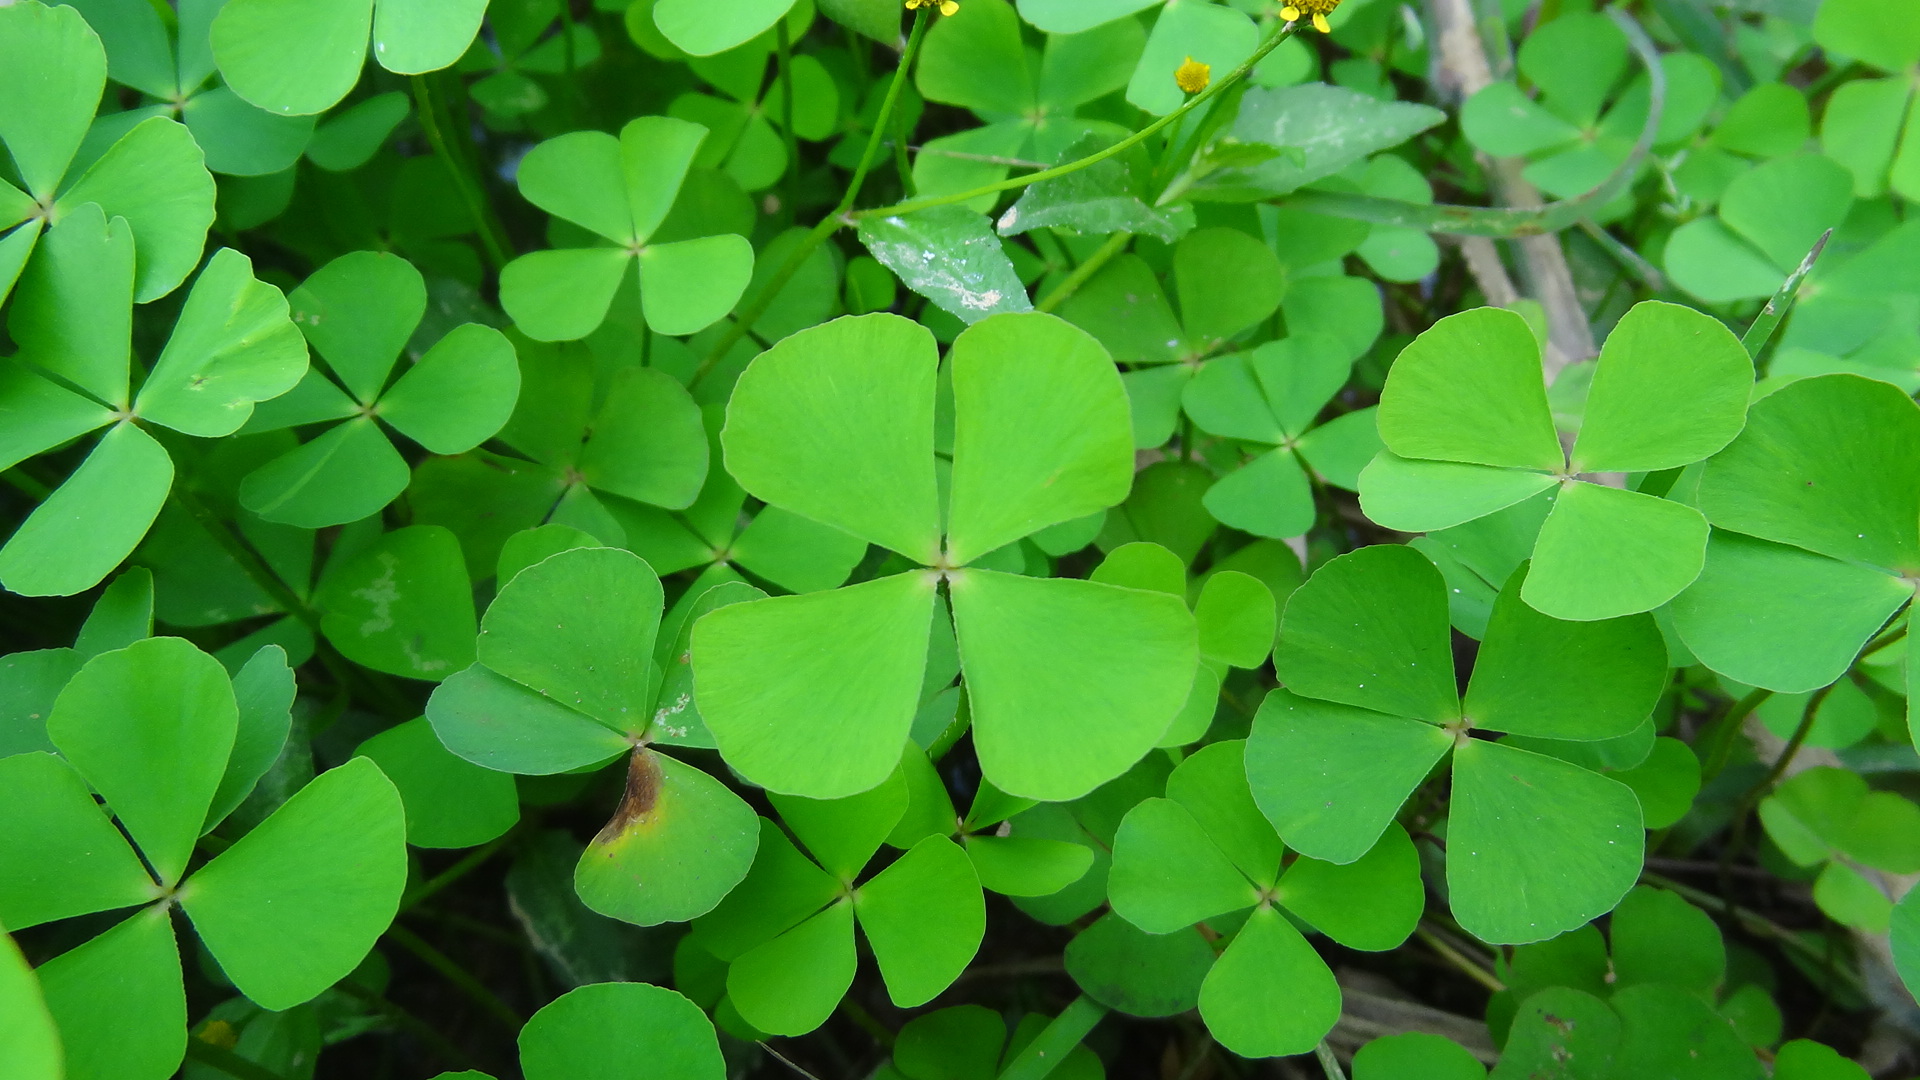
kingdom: Plantae
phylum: Tracheophyta
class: Polypodiopsida
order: Salviniales
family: Marsileaceae
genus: Marsilea
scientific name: Marsilea minuta
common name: Dwarf waterclover
